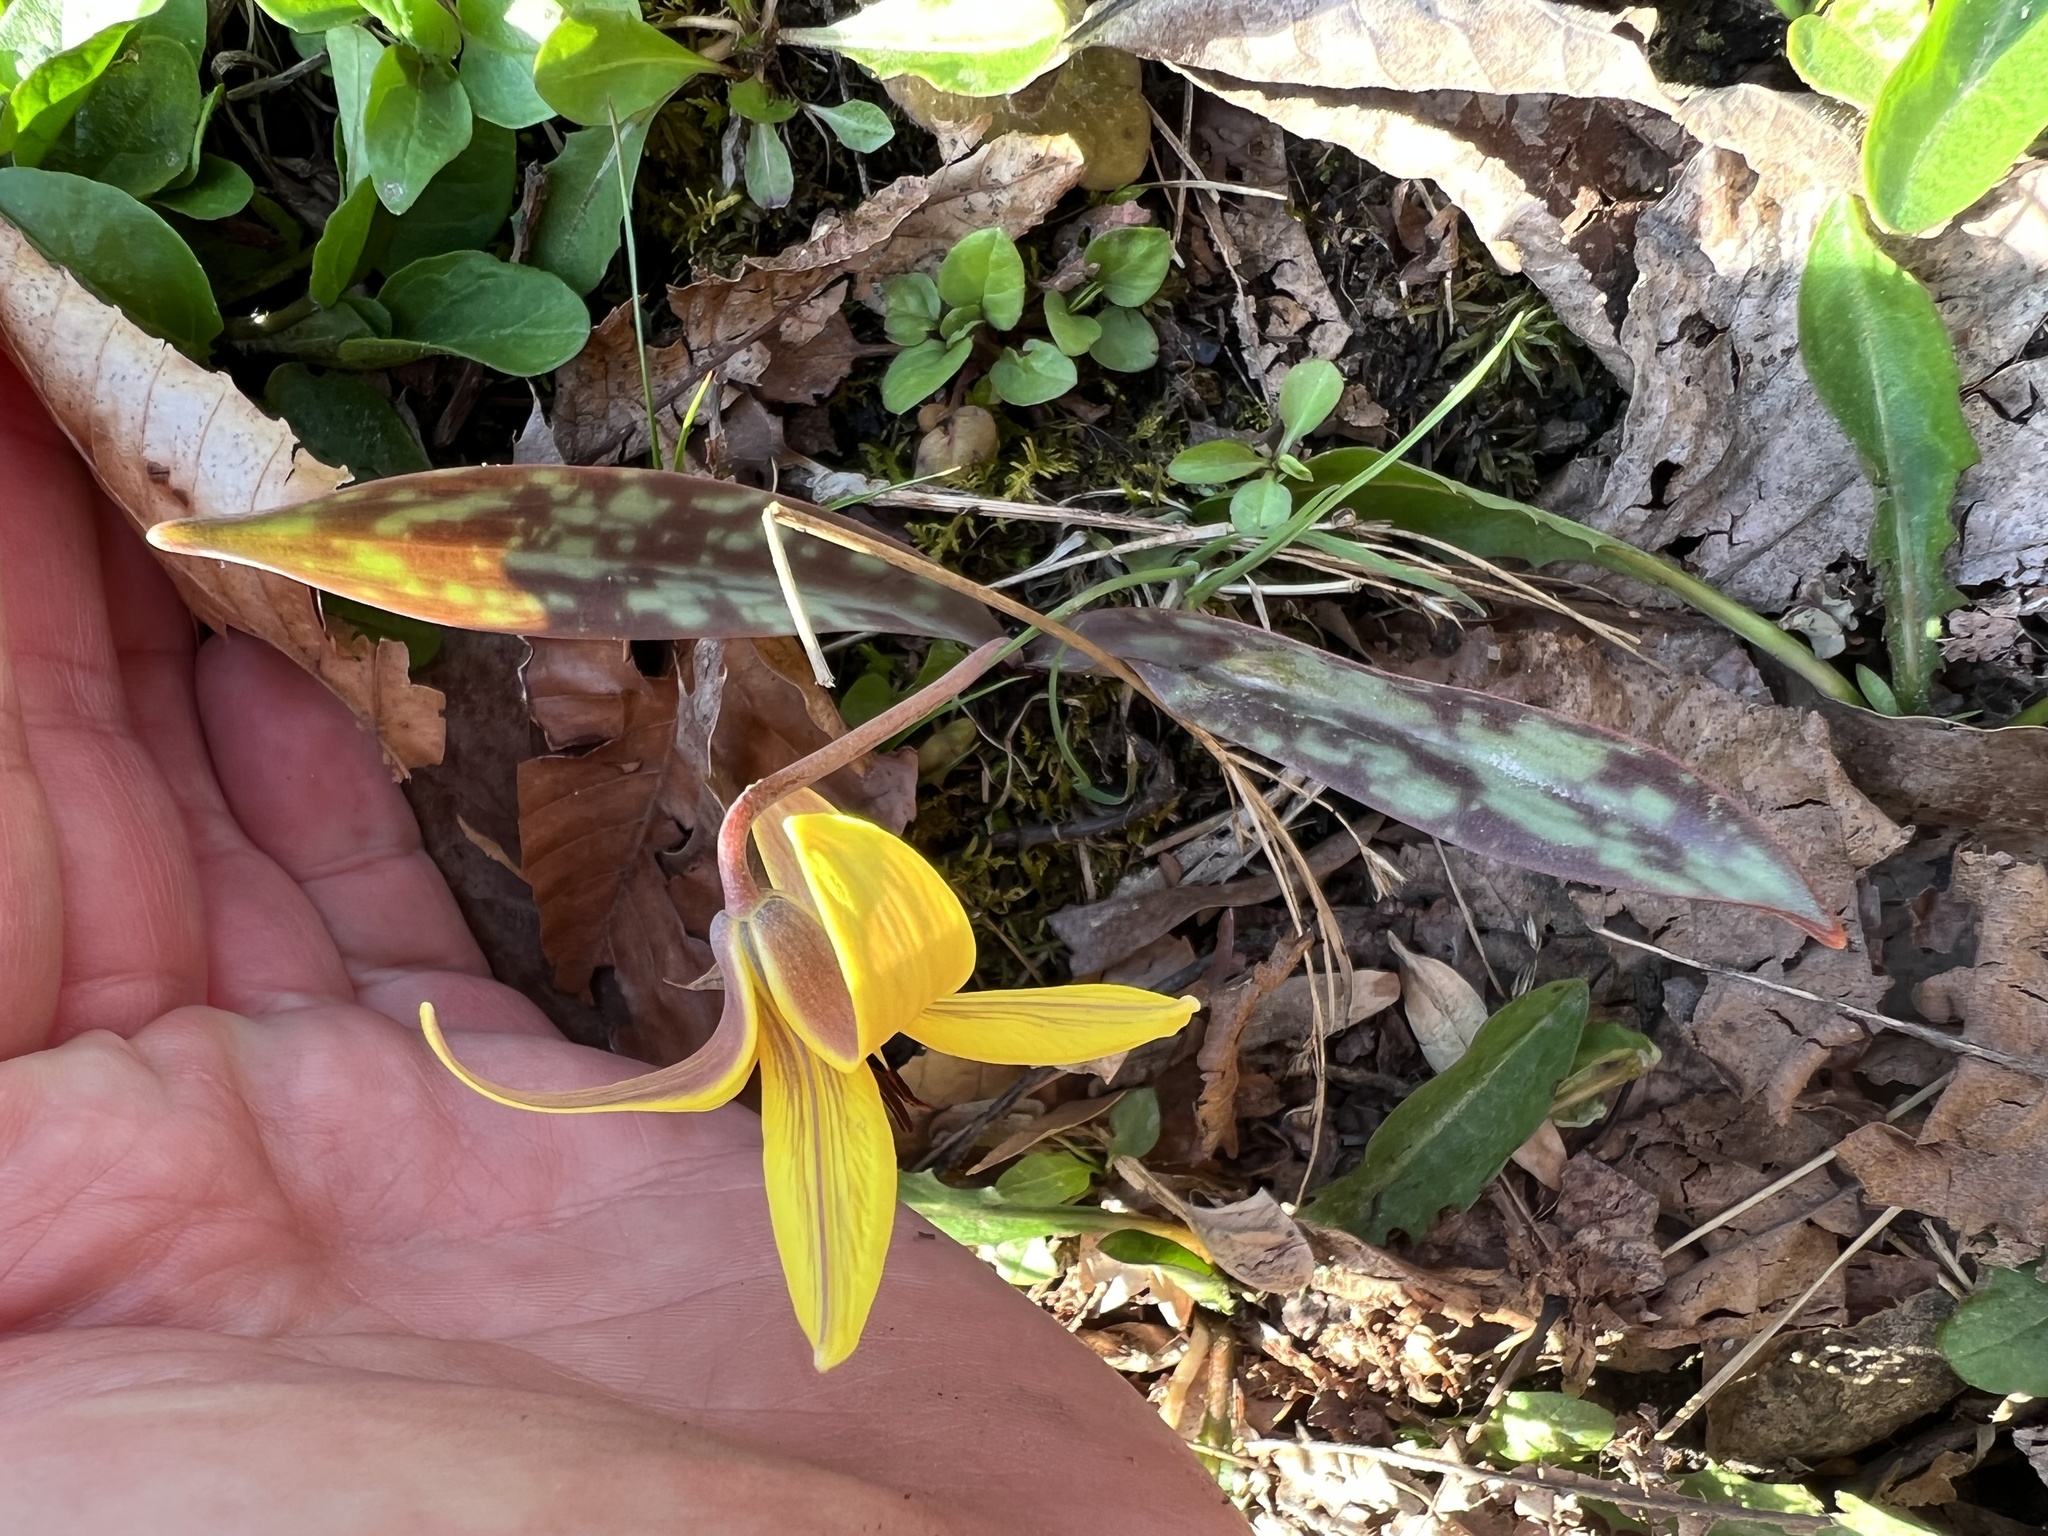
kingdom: Plantae
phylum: Tracheophyta
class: Liliopsida
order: Liliales
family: Liliaceae
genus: Erythronium
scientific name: Erythronium americanum
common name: Yellow adder's-tongue
